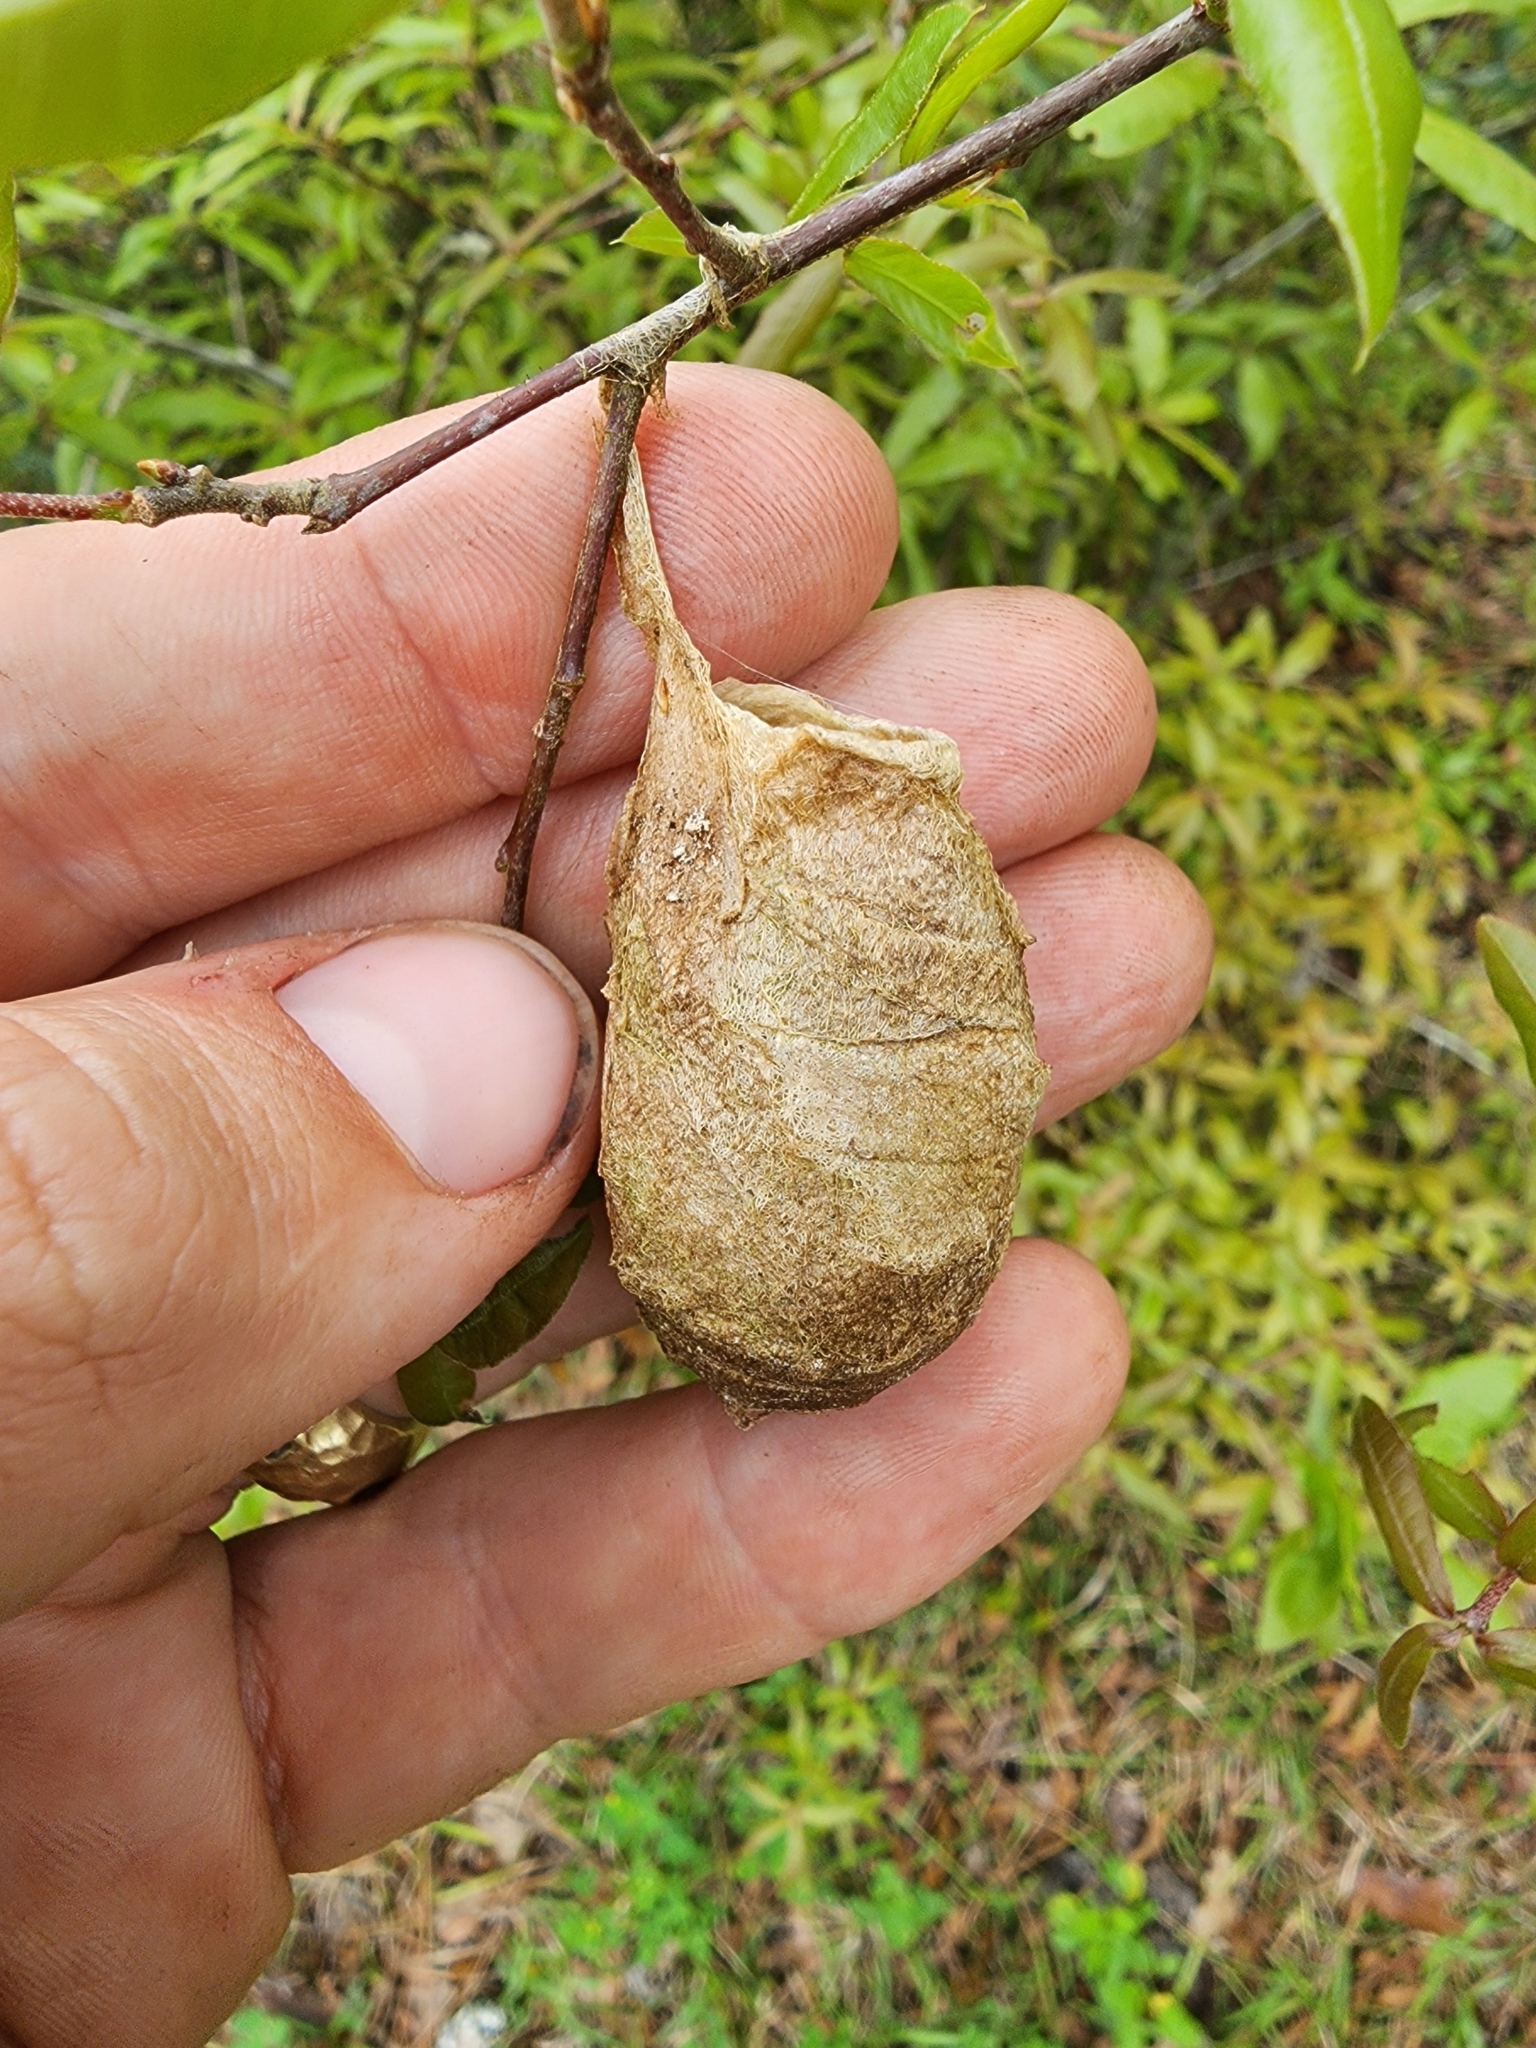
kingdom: Animalia
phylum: Arthropoda
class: Insecta
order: Lepidoptera
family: Saturniidae
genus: Antheraea
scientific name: Antheraea polyphemus
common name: Polyphemus moth
